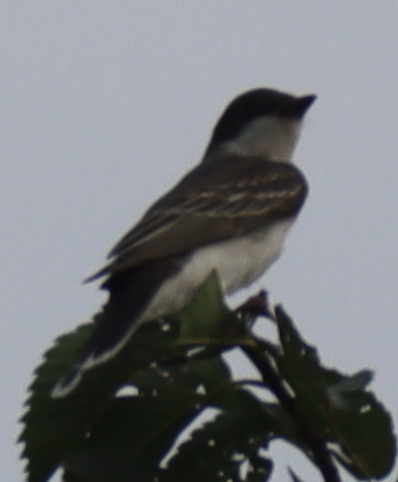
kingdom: Animalia
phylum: Chordata
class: Aves
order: Passeriformes
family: Tyrannidae
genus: Tyrannus
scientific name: Tyrannus tyrannus
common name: Eastern kingbird
